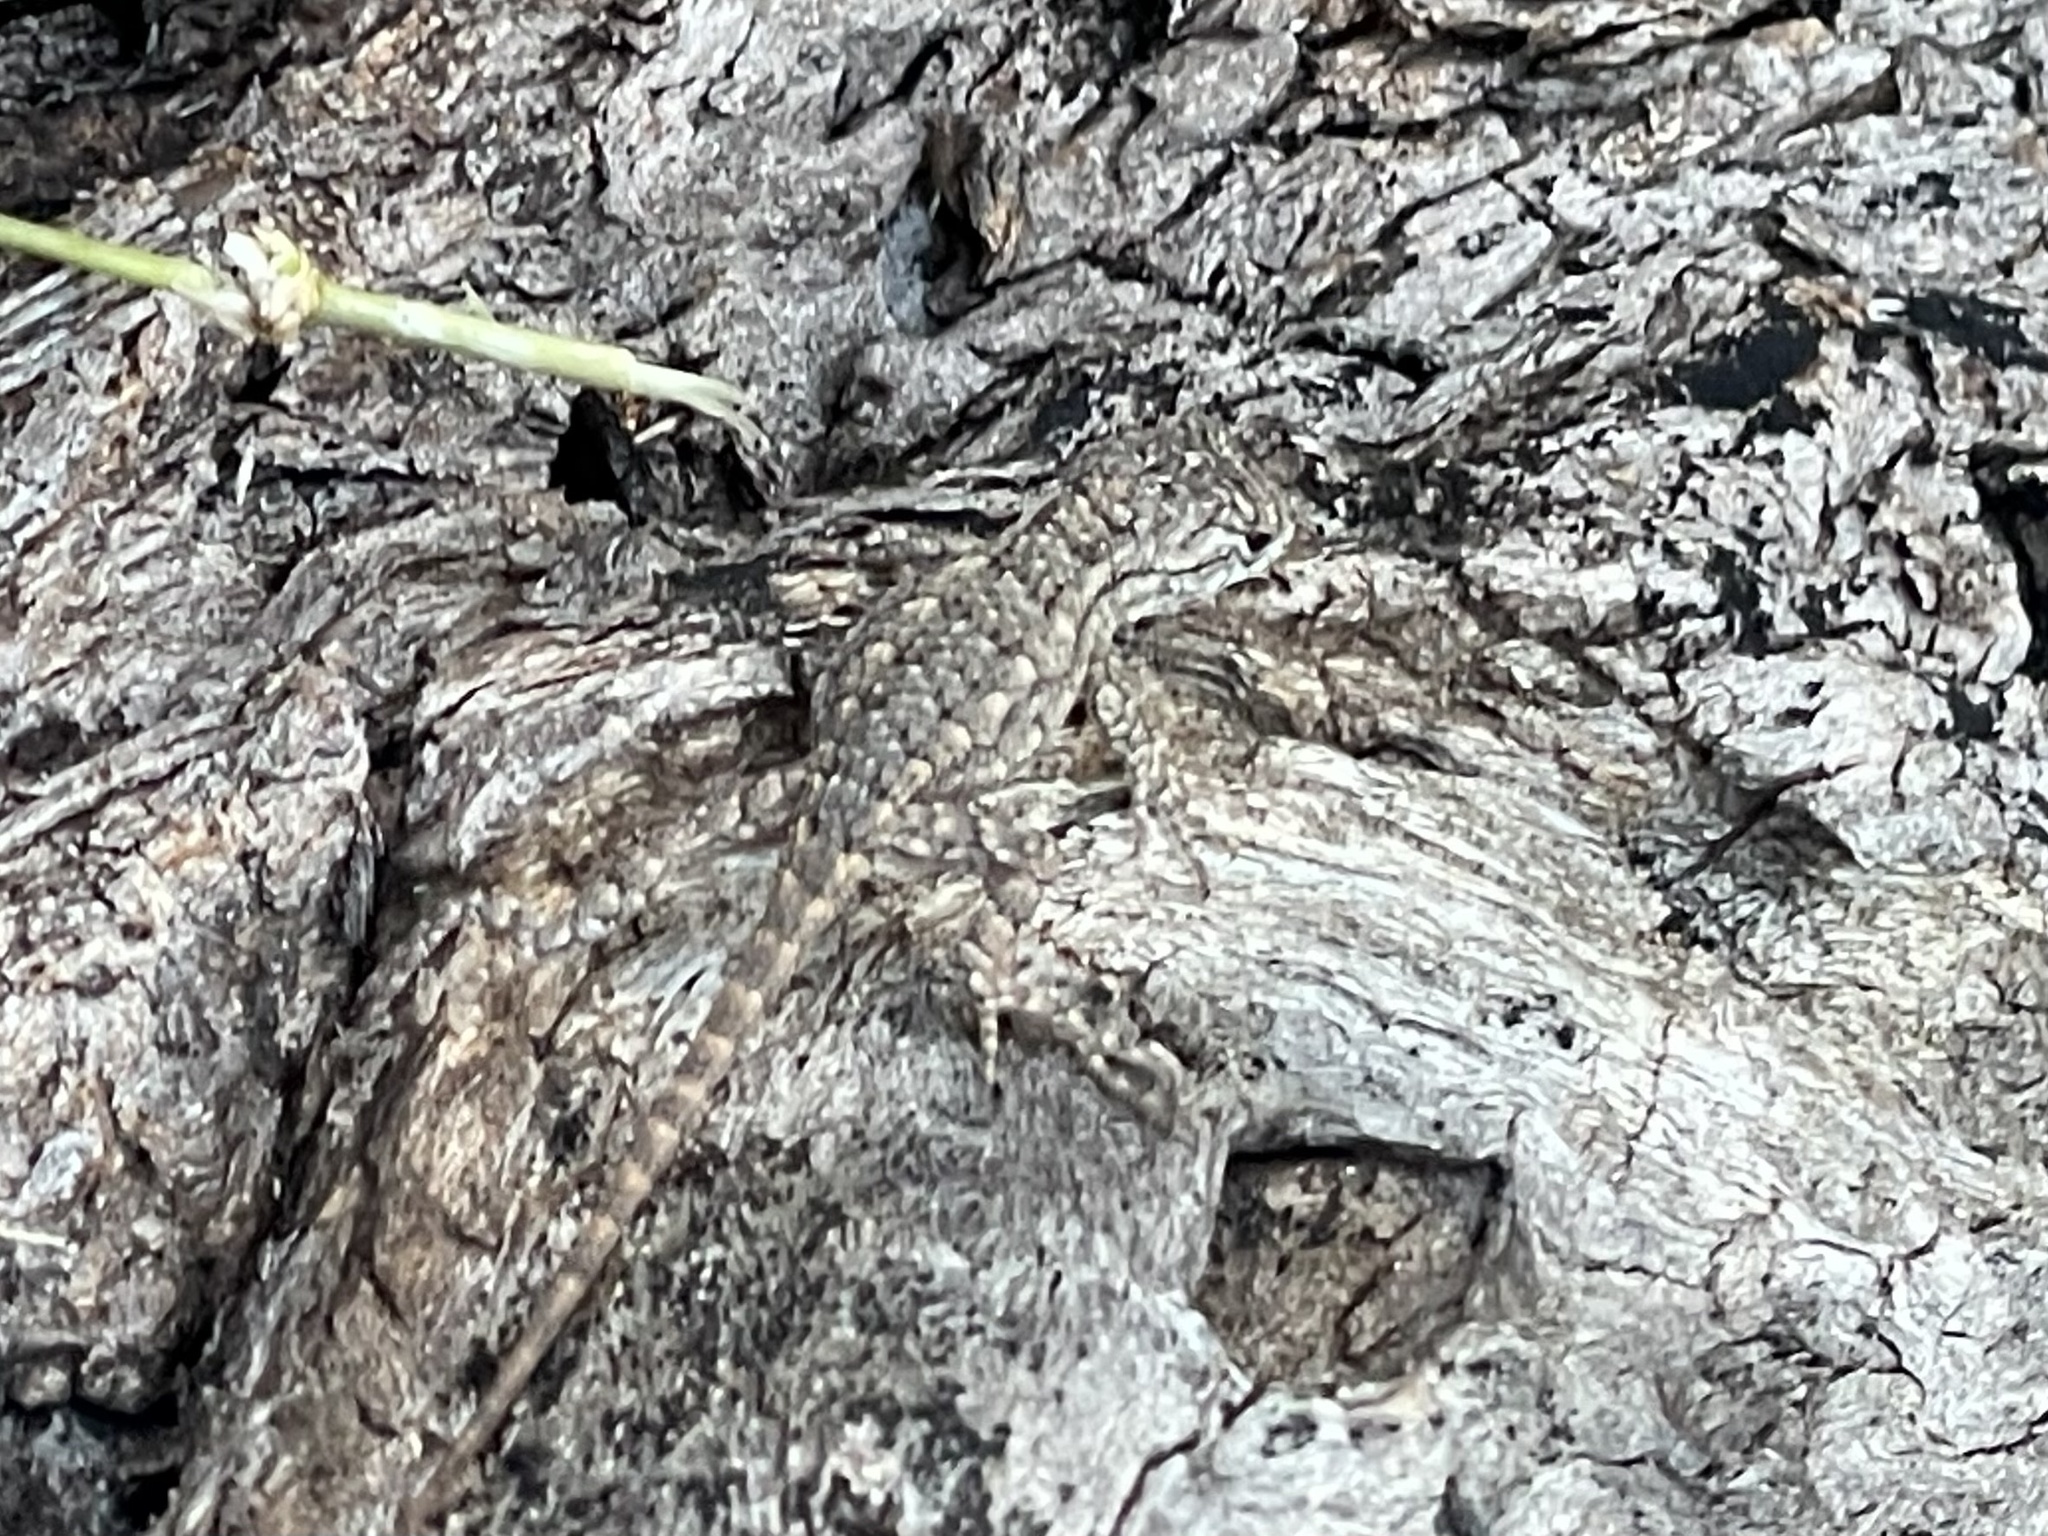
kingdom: Animalia
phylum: Chordata
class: Squamata
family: Phrynosomatidae
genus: Sceloporus
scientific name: Sceloporus olivaceus
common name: Texas spiny lizard
